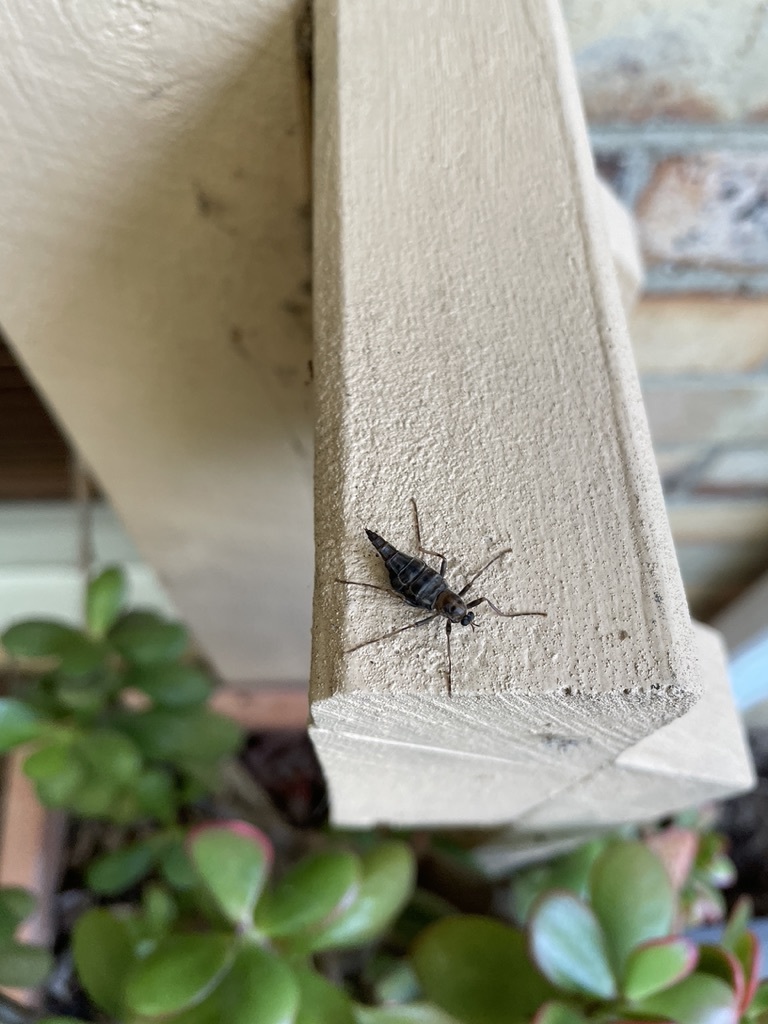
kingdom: Animalia
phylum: Arthropoda
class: Insecta
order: Diptera
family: Stratiomyidae
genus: Boreoides
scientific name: Boreoides subulatus
